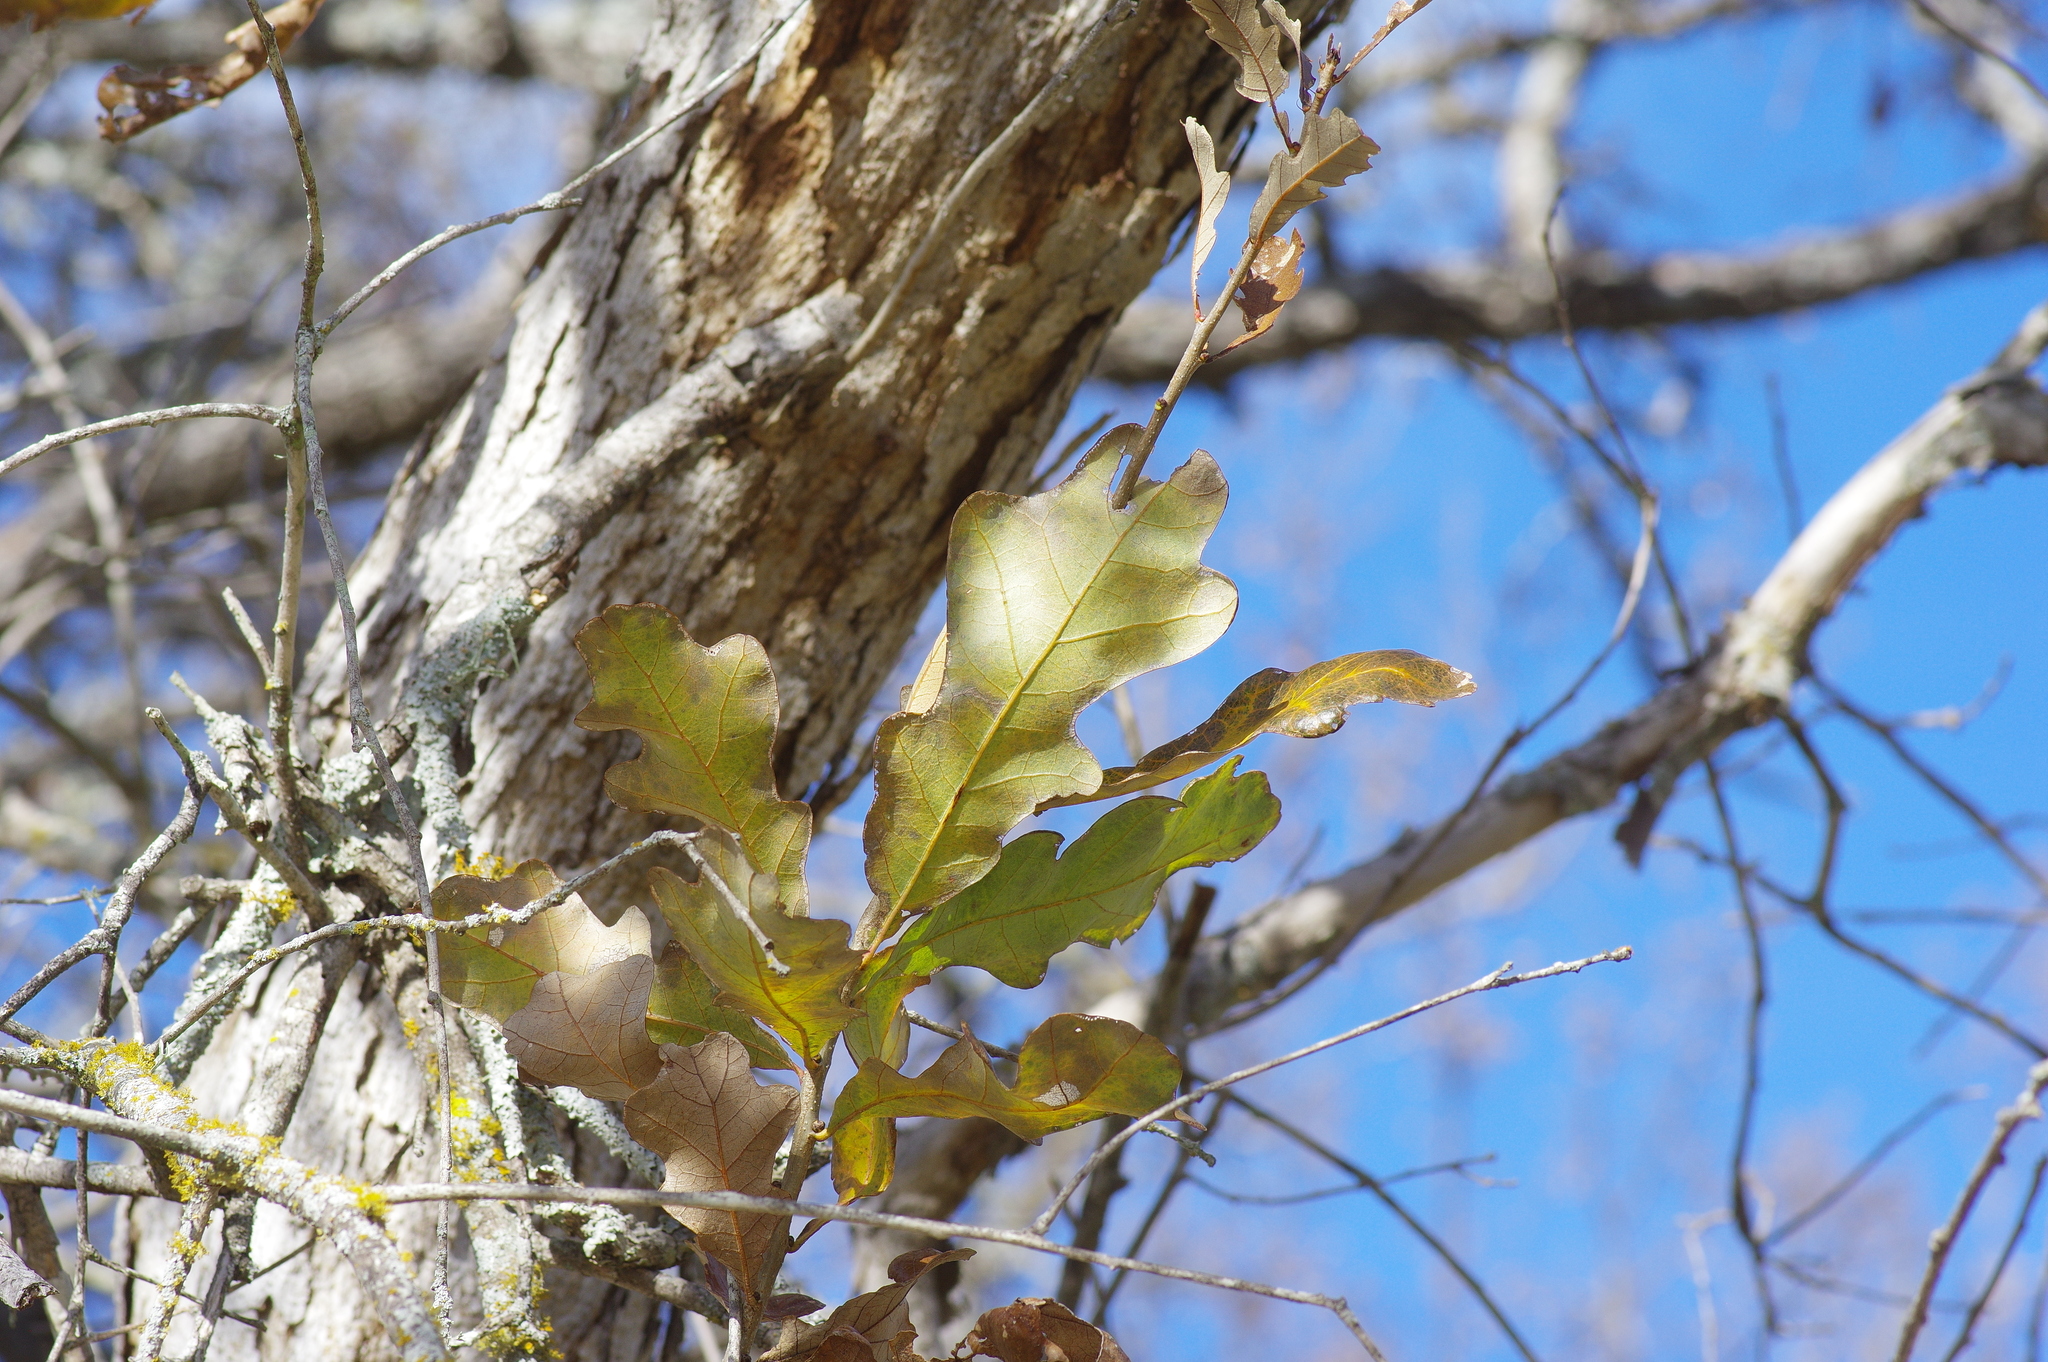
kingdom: Plantae
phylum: Tracheophyta
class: Magnoliopsida
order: Fagales
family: Fagaceae
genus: Quercus
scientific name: Quercus sinuata
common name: Durand oak
